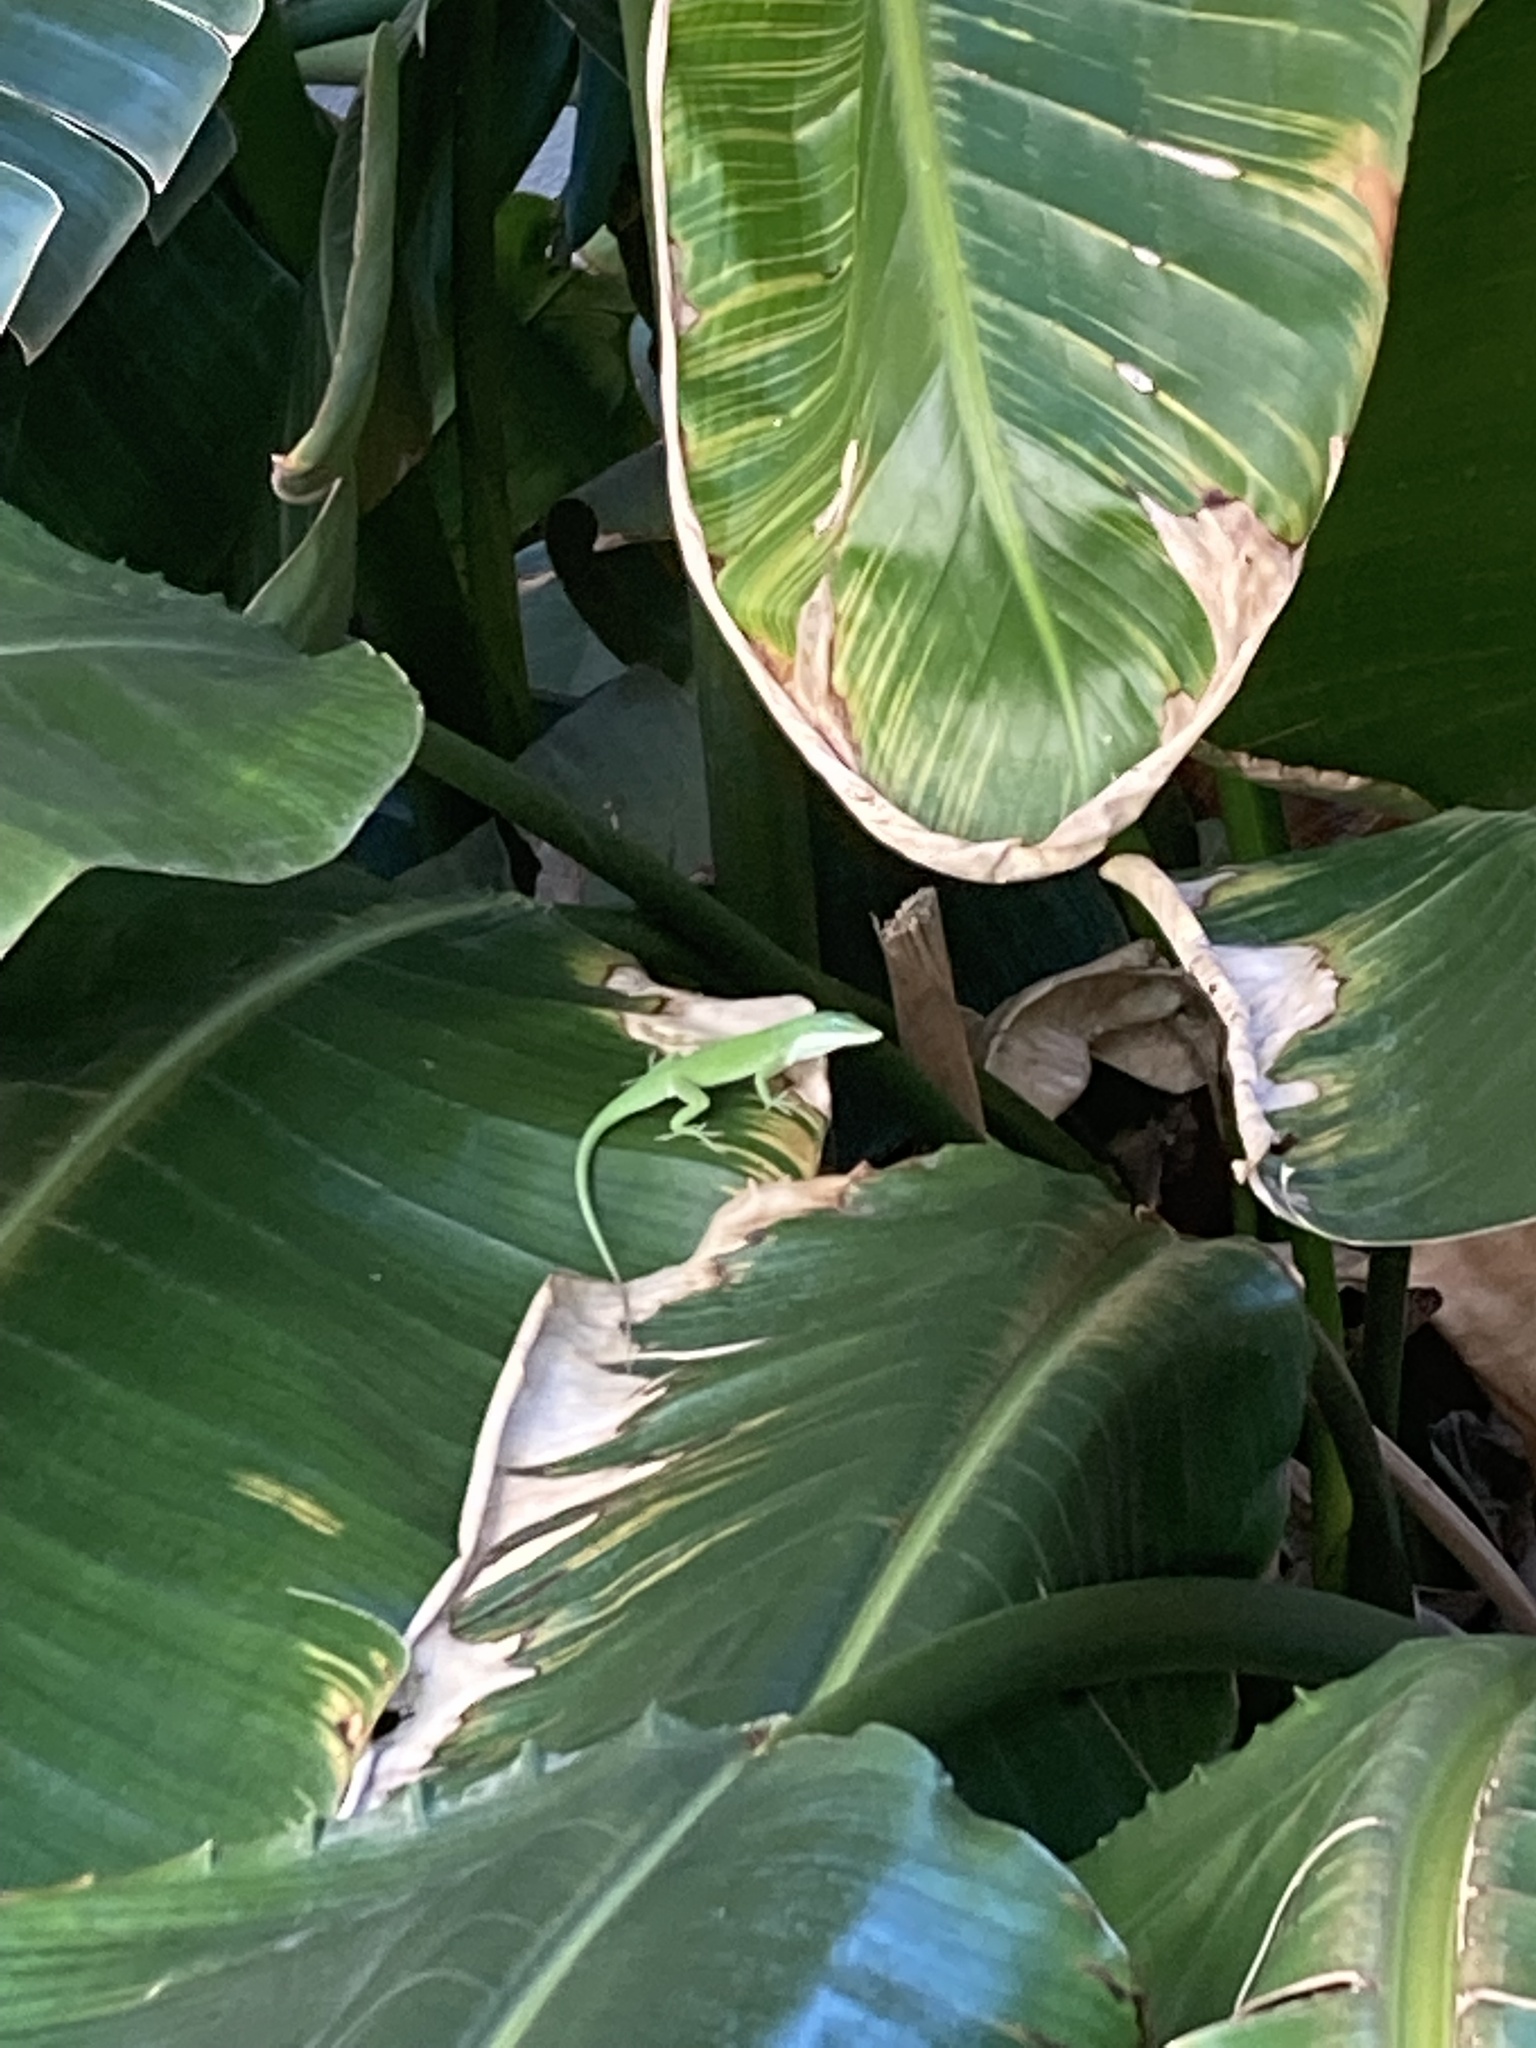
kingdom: Animalia
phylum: Chordata
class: Squamata
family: Dactyloidae
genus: Anolis
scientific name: Anolis carolinensis
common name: Green anole
